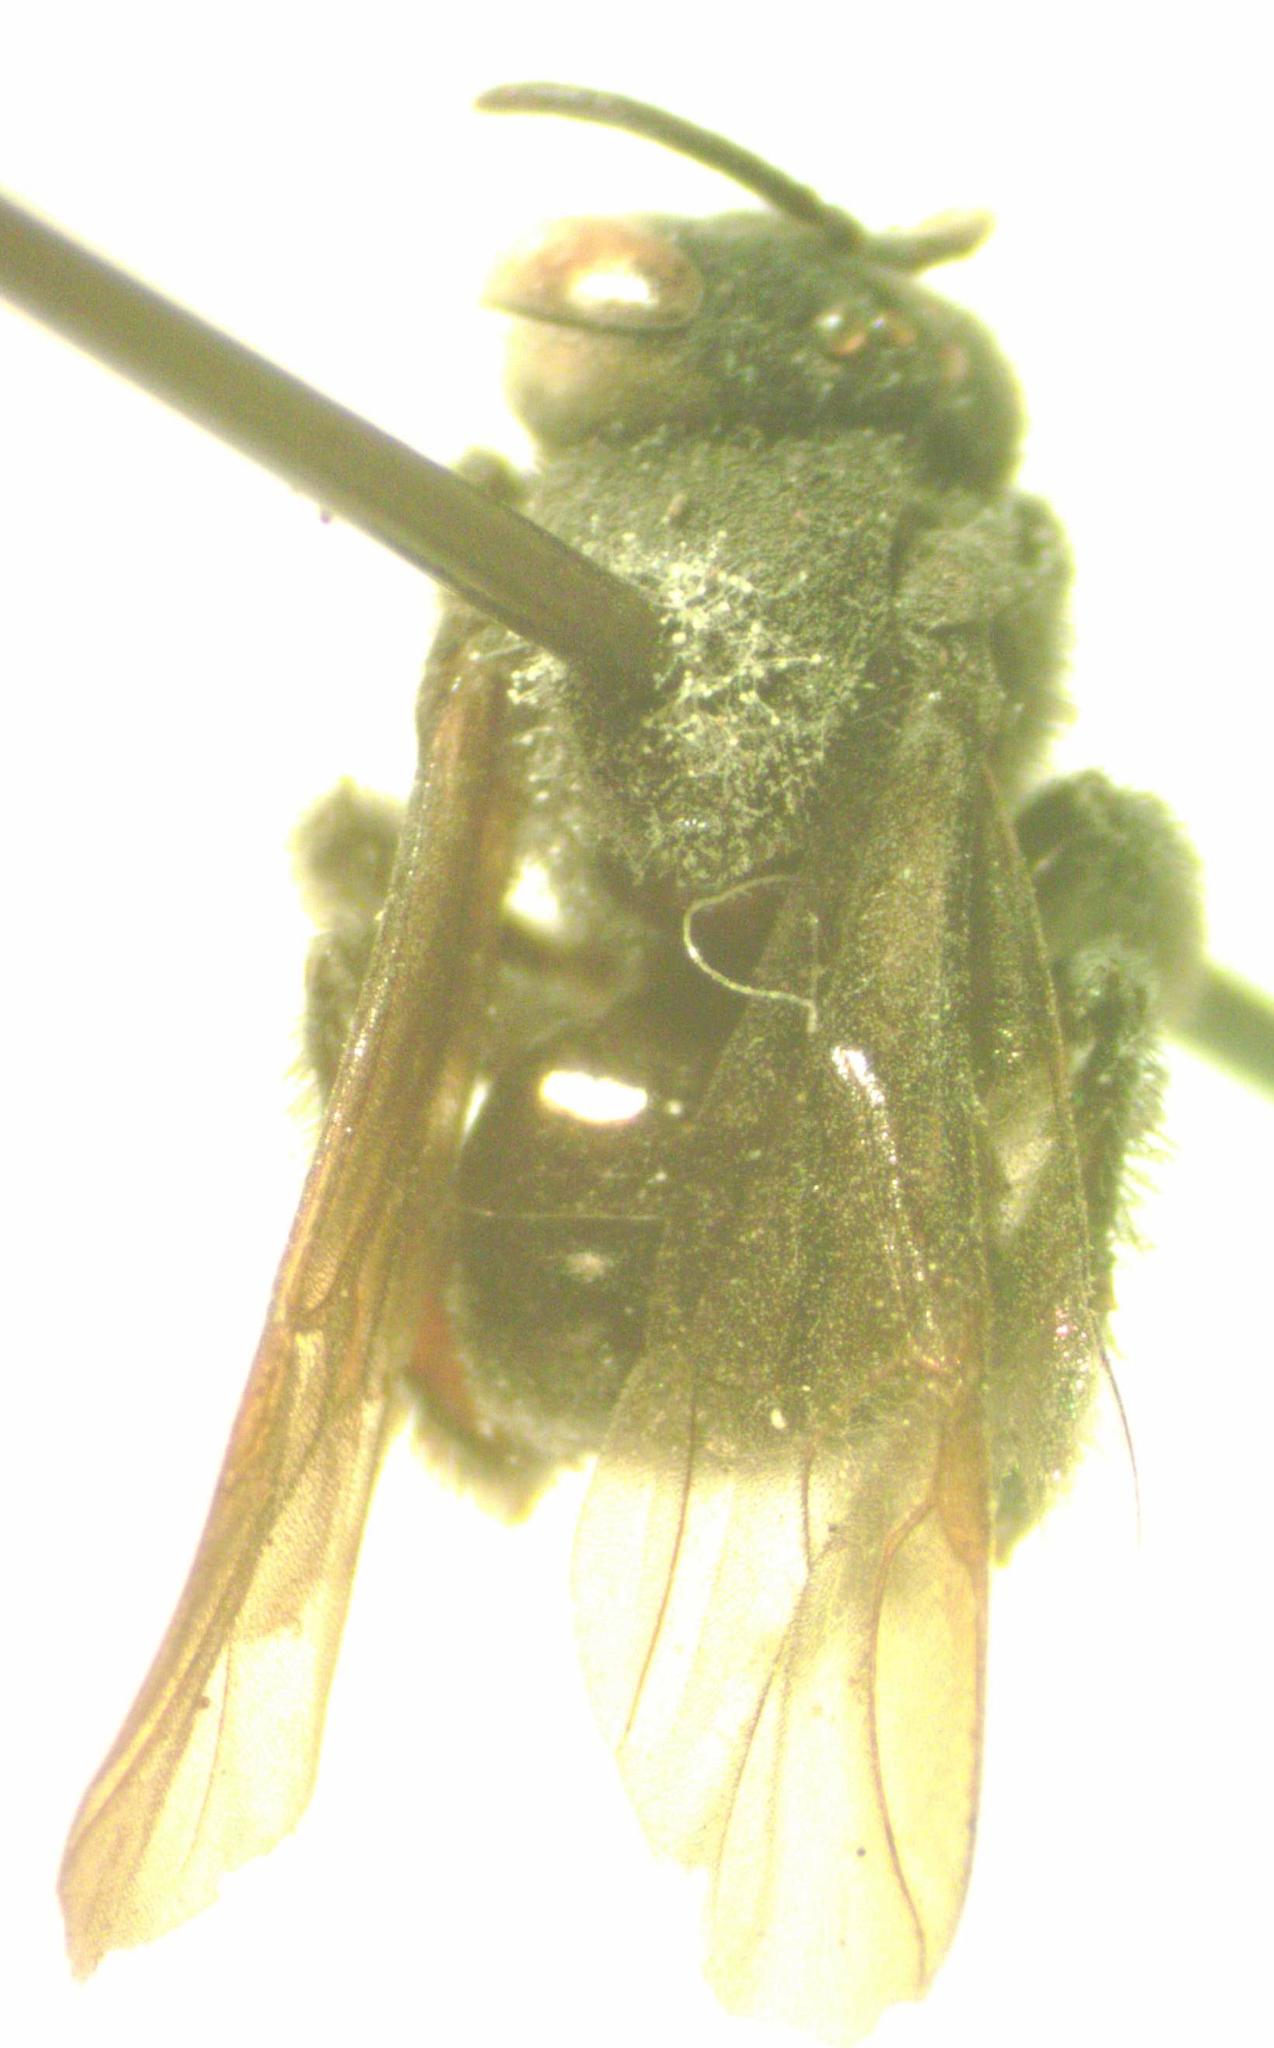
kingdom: Animalia
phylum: Arthropoda
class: Insecta
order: Hymenoptera
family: Apidae
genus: Trigona
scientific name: Trigona fuscipennis
